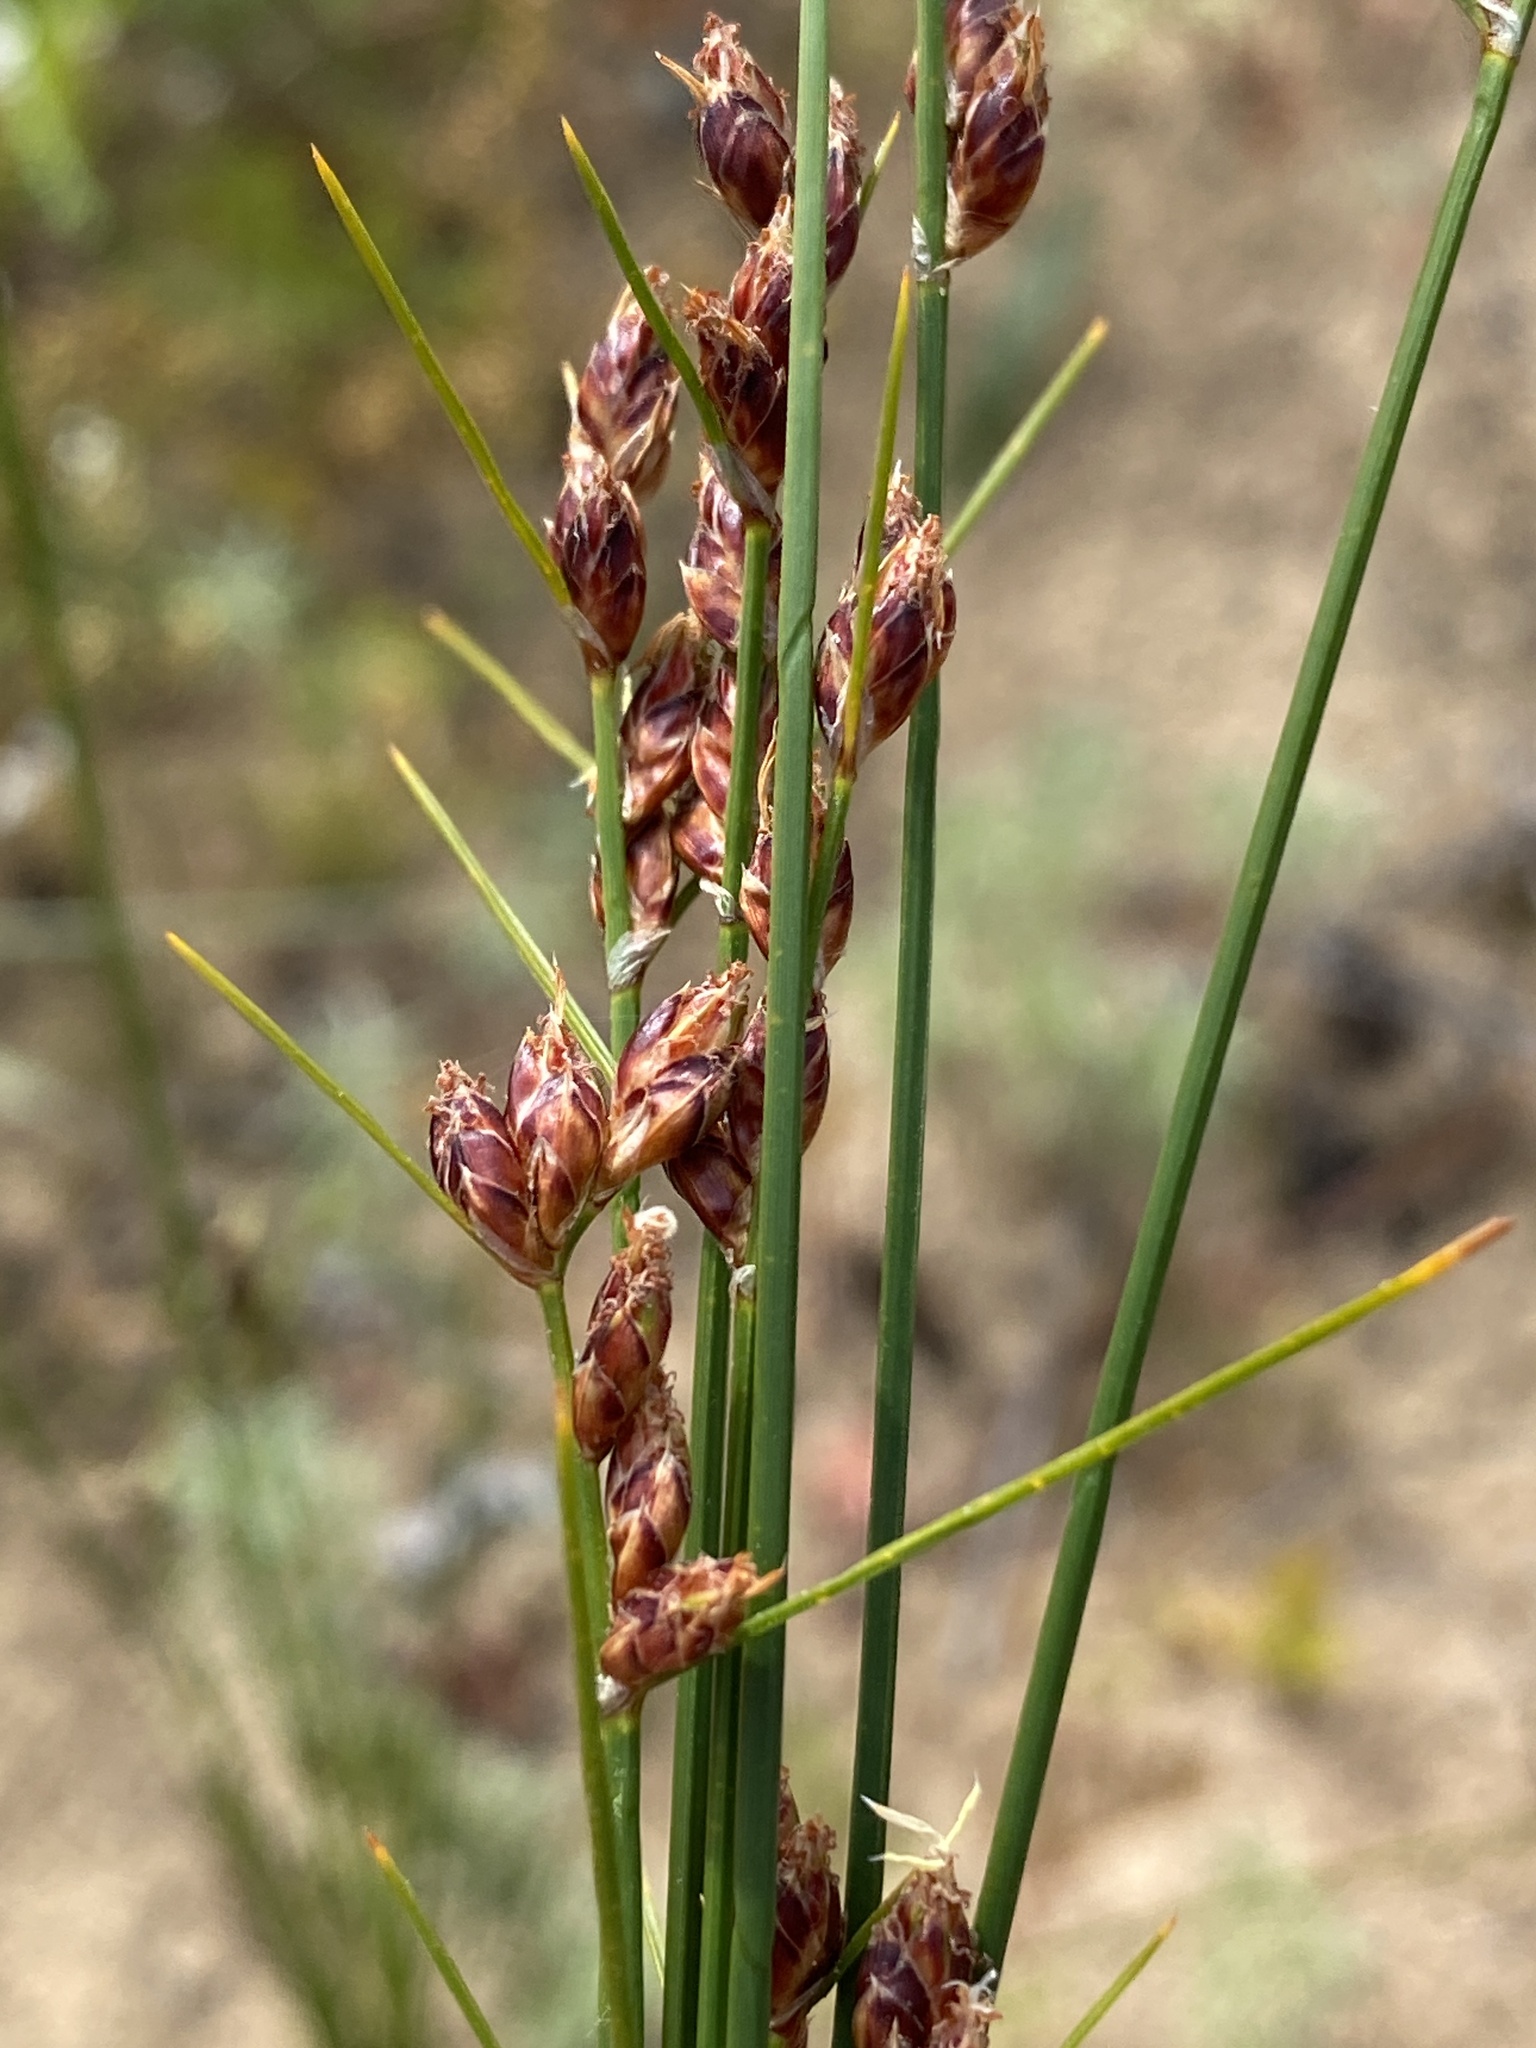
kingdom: Plantae
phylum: Tracheophyta
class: Liliopsida
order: Poales
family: Cyperaceae
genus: Ficinia
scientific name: Ficinia secunda
